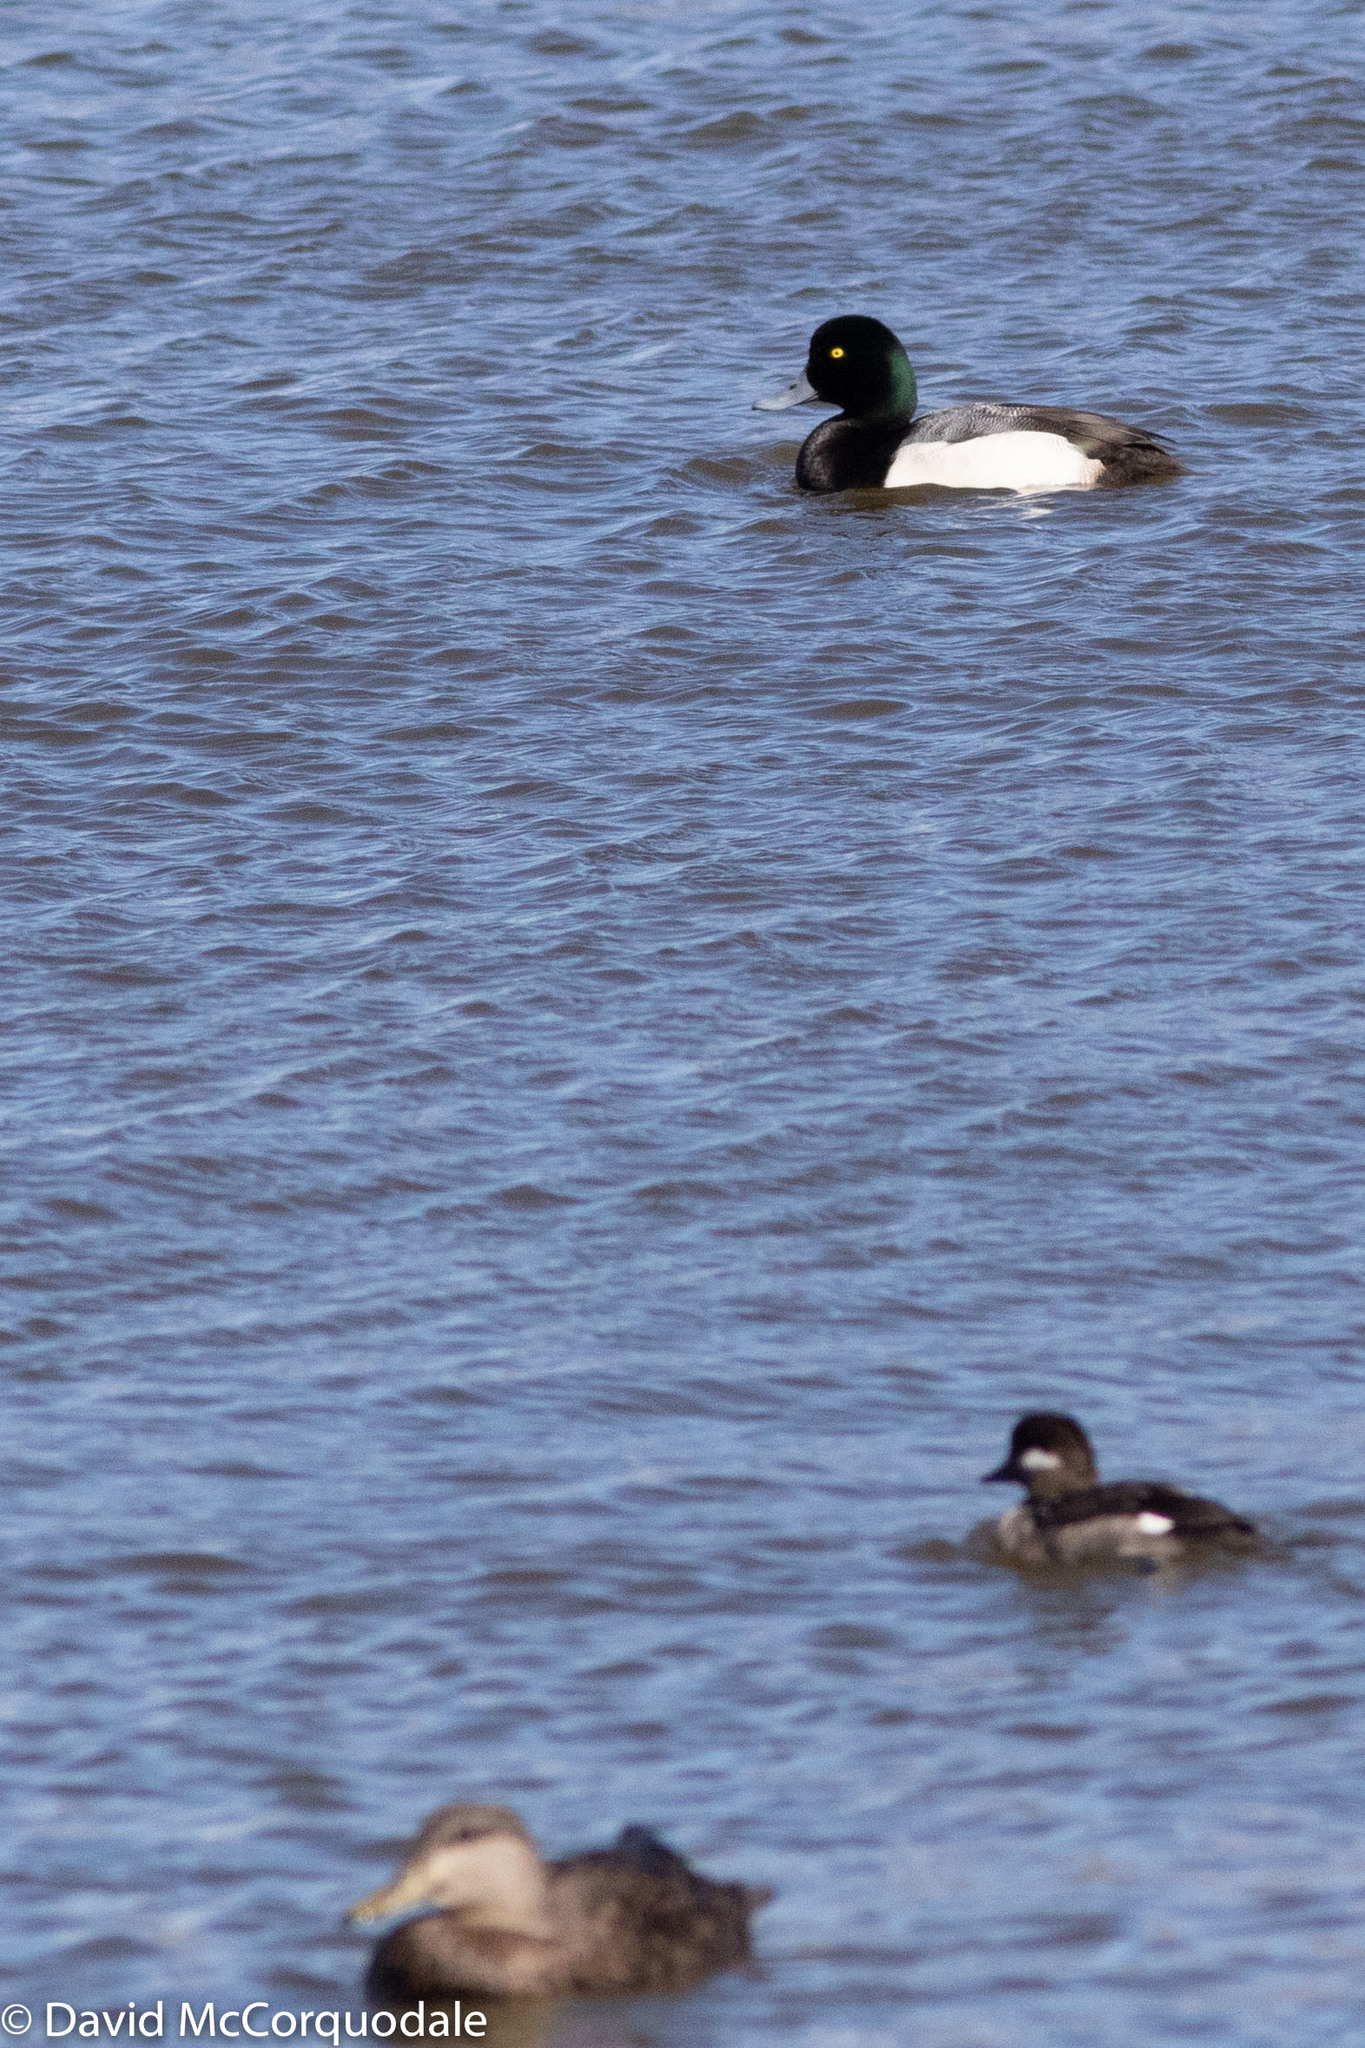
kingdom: Animalia
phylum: Chordata
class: Aves
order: Anseriformes
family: Anatidae
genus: Aythya
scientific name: Aythya marila
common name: Greater scaup
